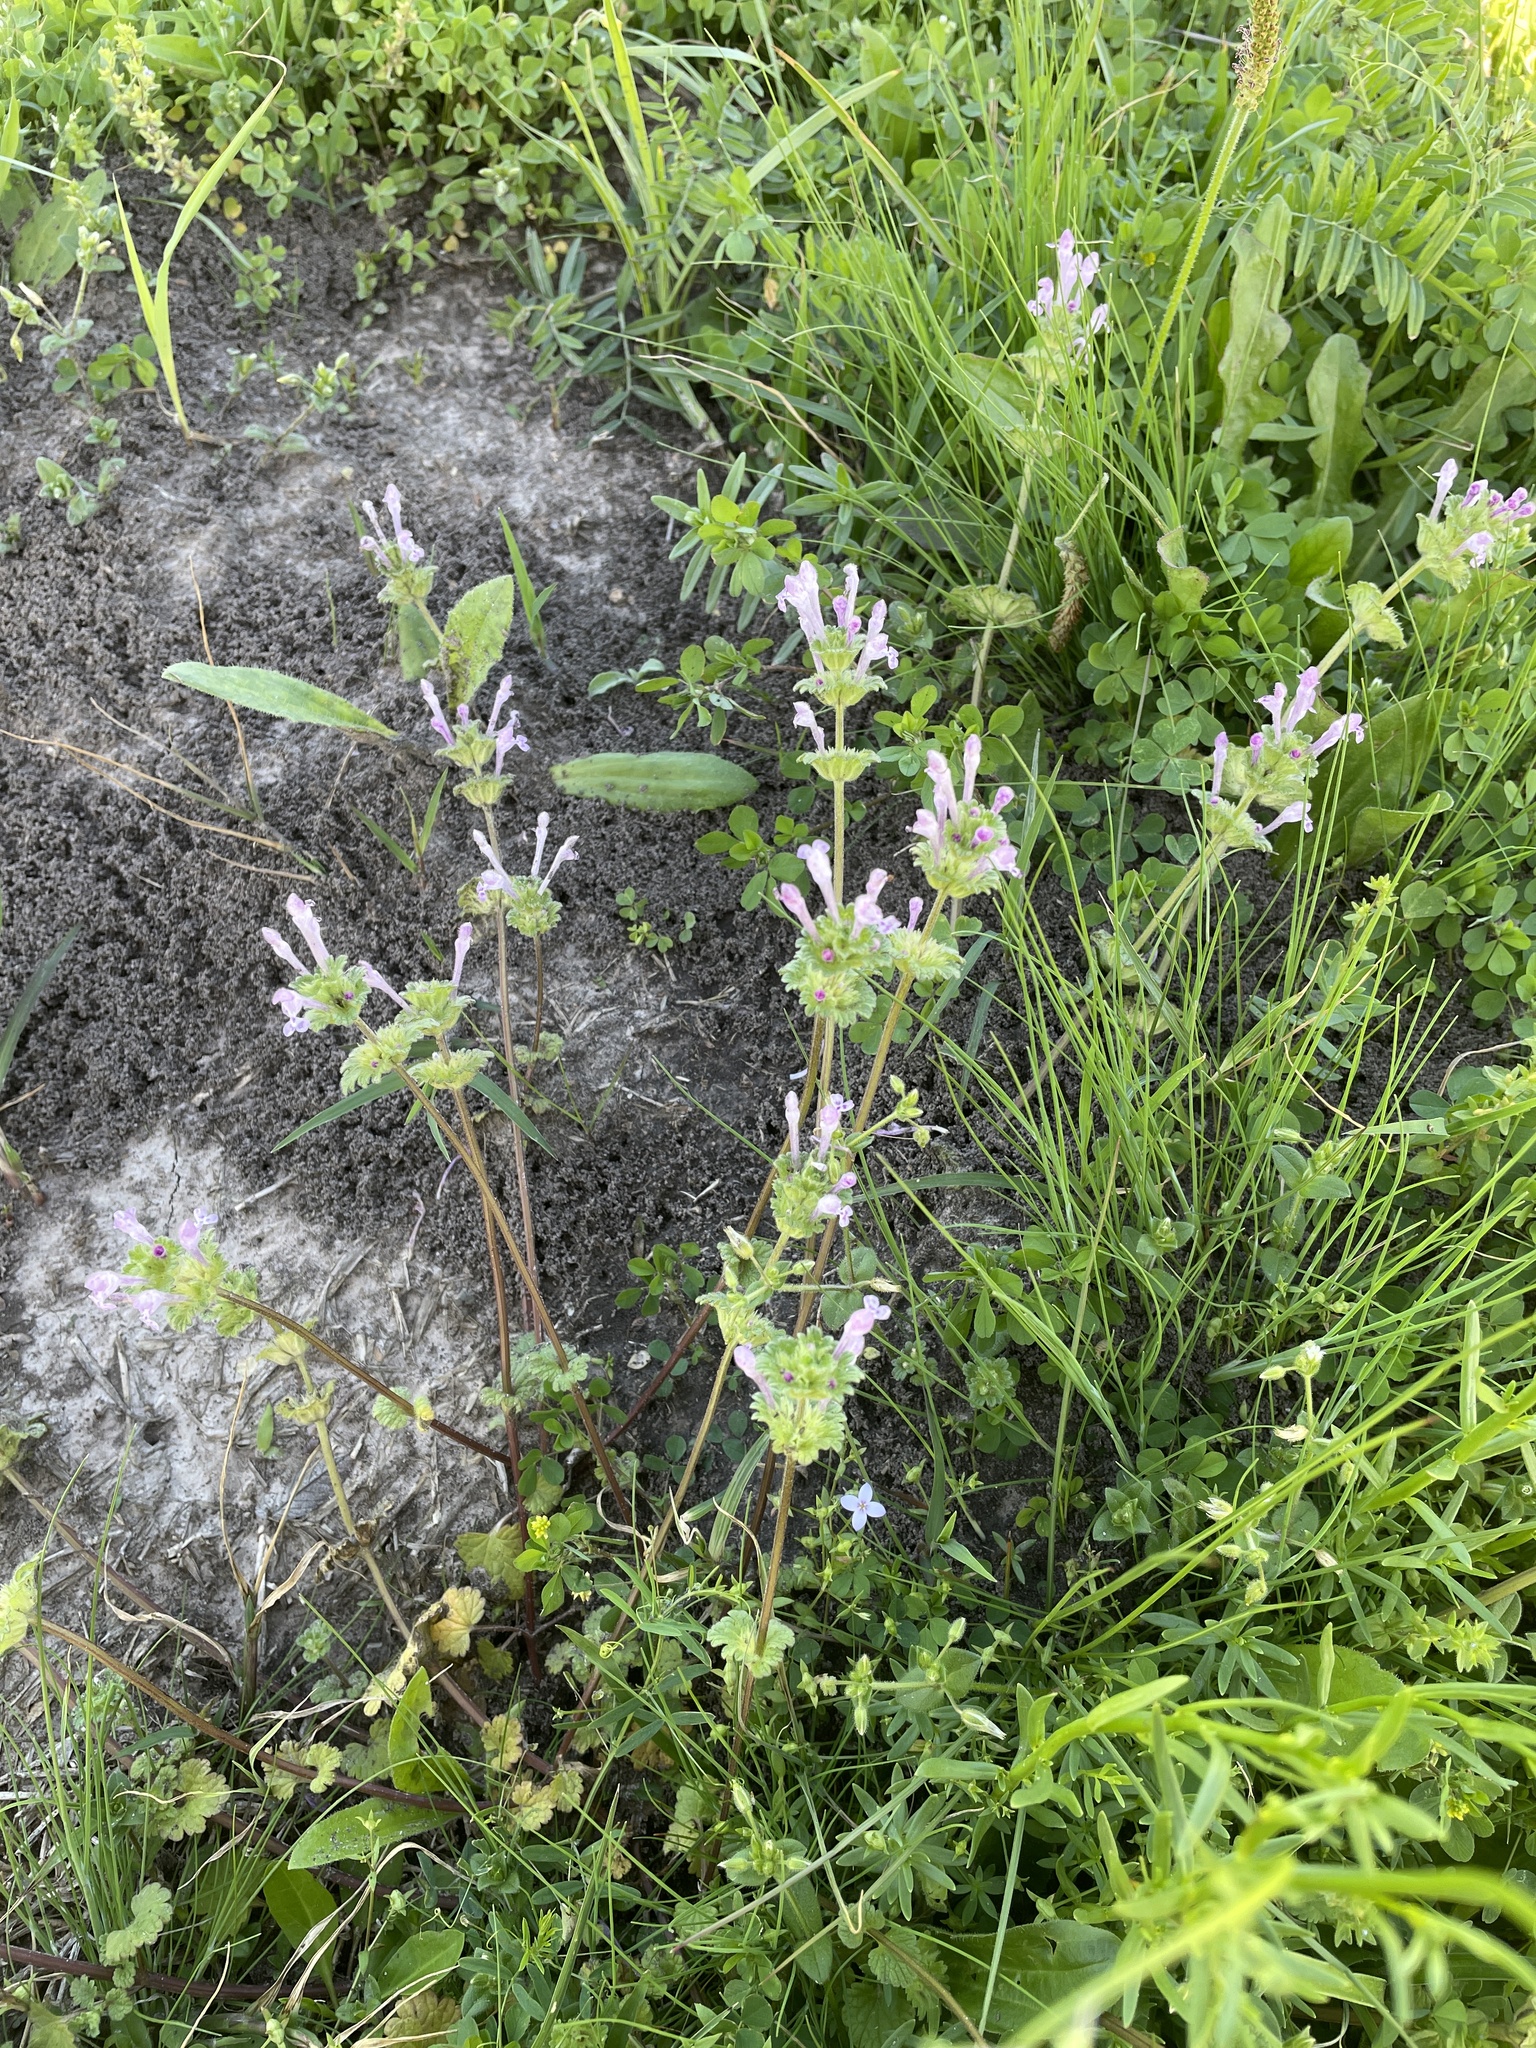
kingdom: Plantae
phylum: Tracheophyta
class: Magnoliopsida
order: Lamiales
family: Lamiaceae
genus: Lamium
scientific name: Lamium amplexicaule
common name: Henbit dead-nettle
